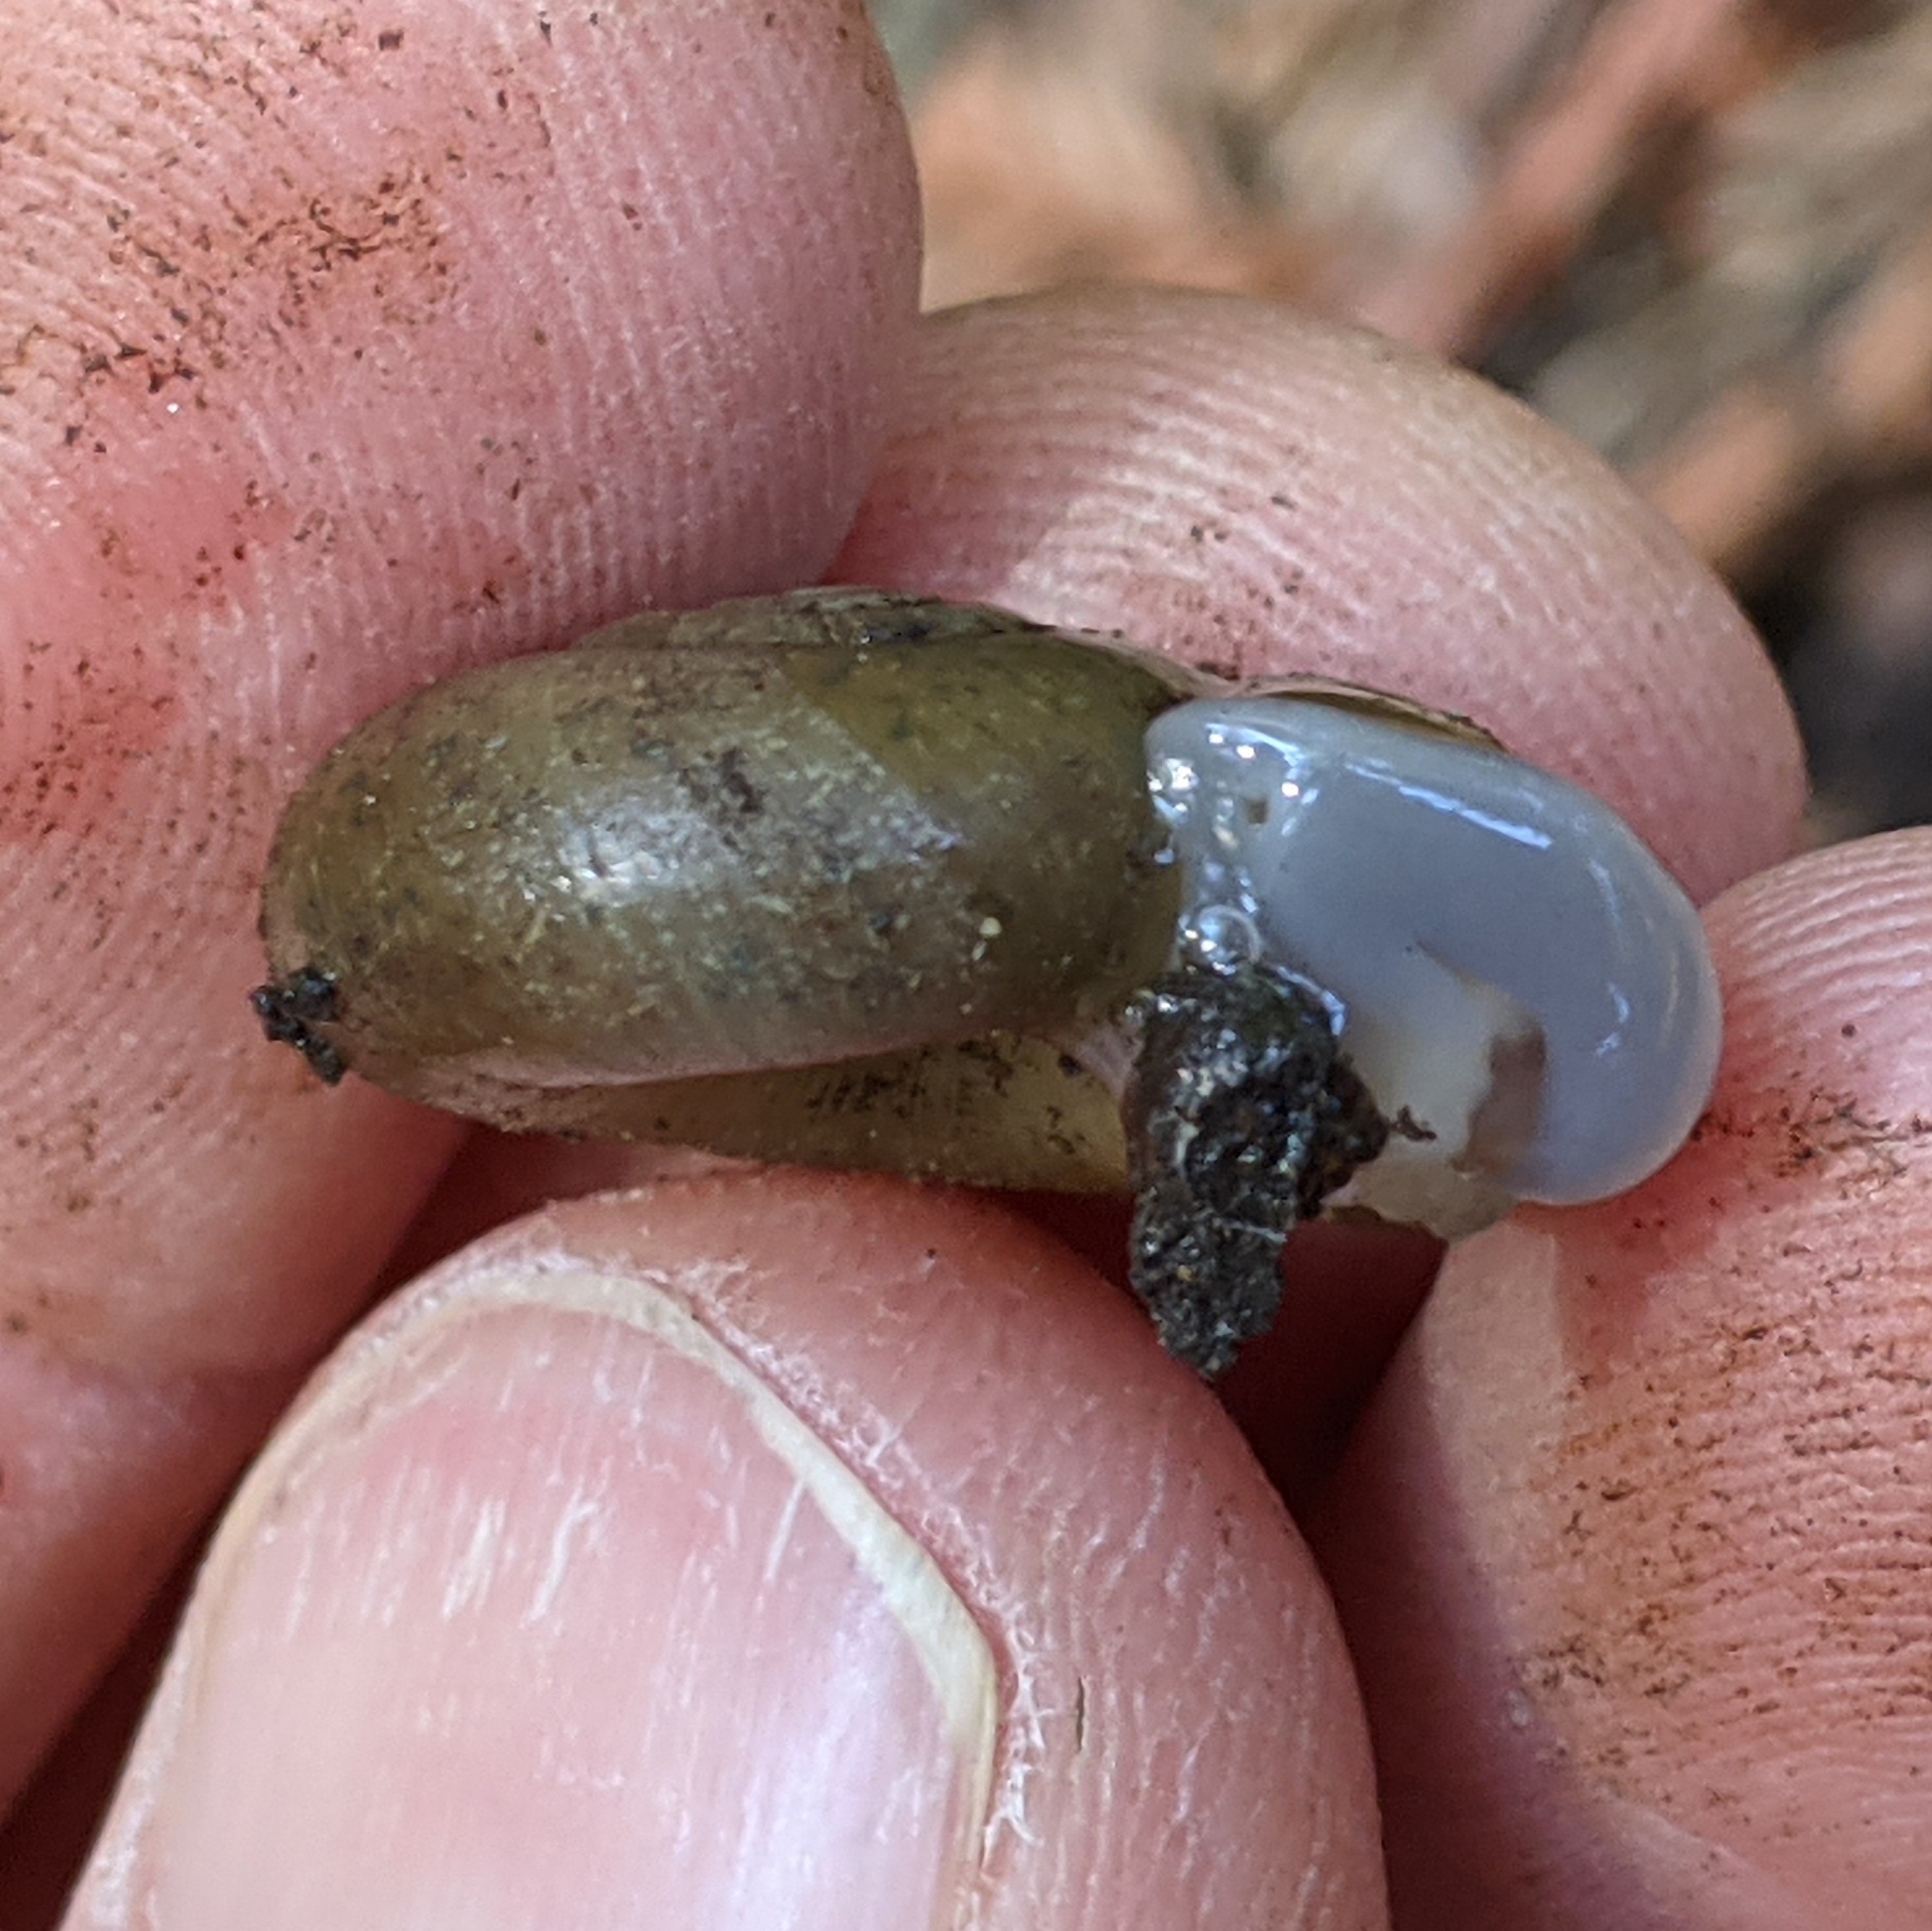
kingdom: Animalia
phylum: Mollusca
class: Gastropoda
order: Stylommatophora
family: Haplotrematidae
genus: Haplotrema
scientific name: Haplotrema minimum
